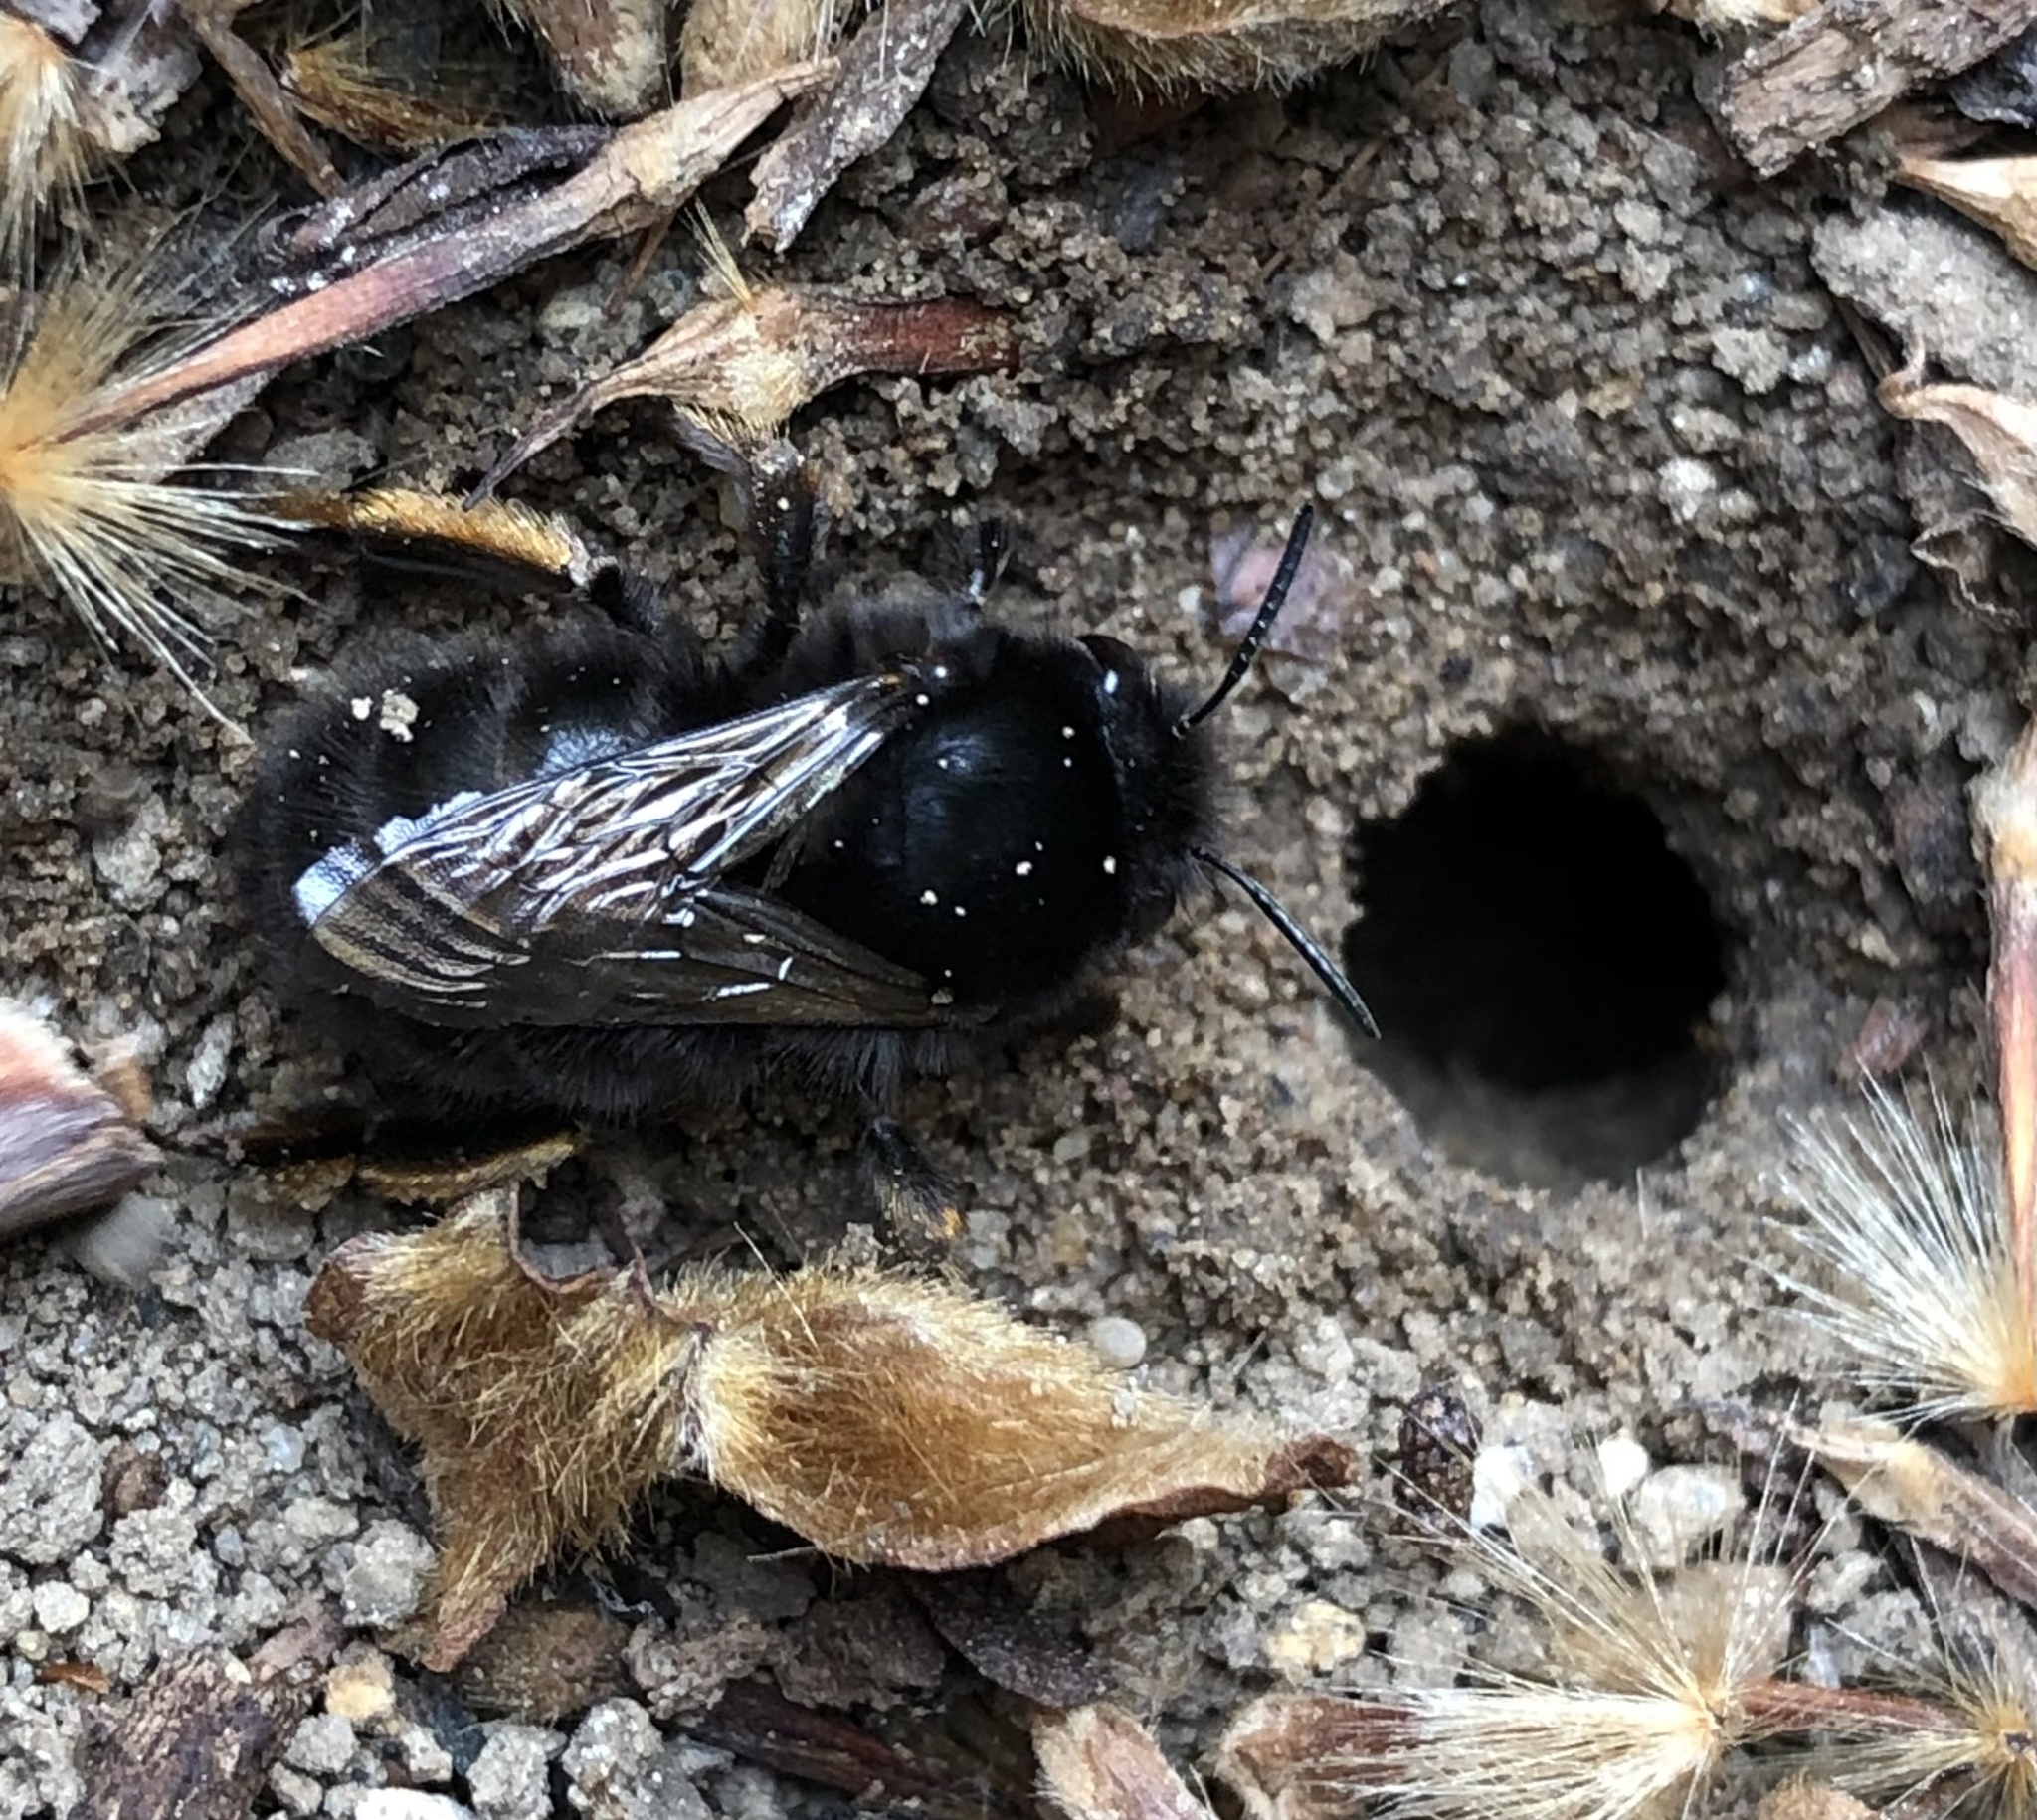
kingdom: Animalia
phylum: Arthropoda
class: Insecta
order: Hymenoptera
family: Apidae
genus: Anthophora
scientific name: Anthophora plumipes
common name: Hairy-footed flower bee
